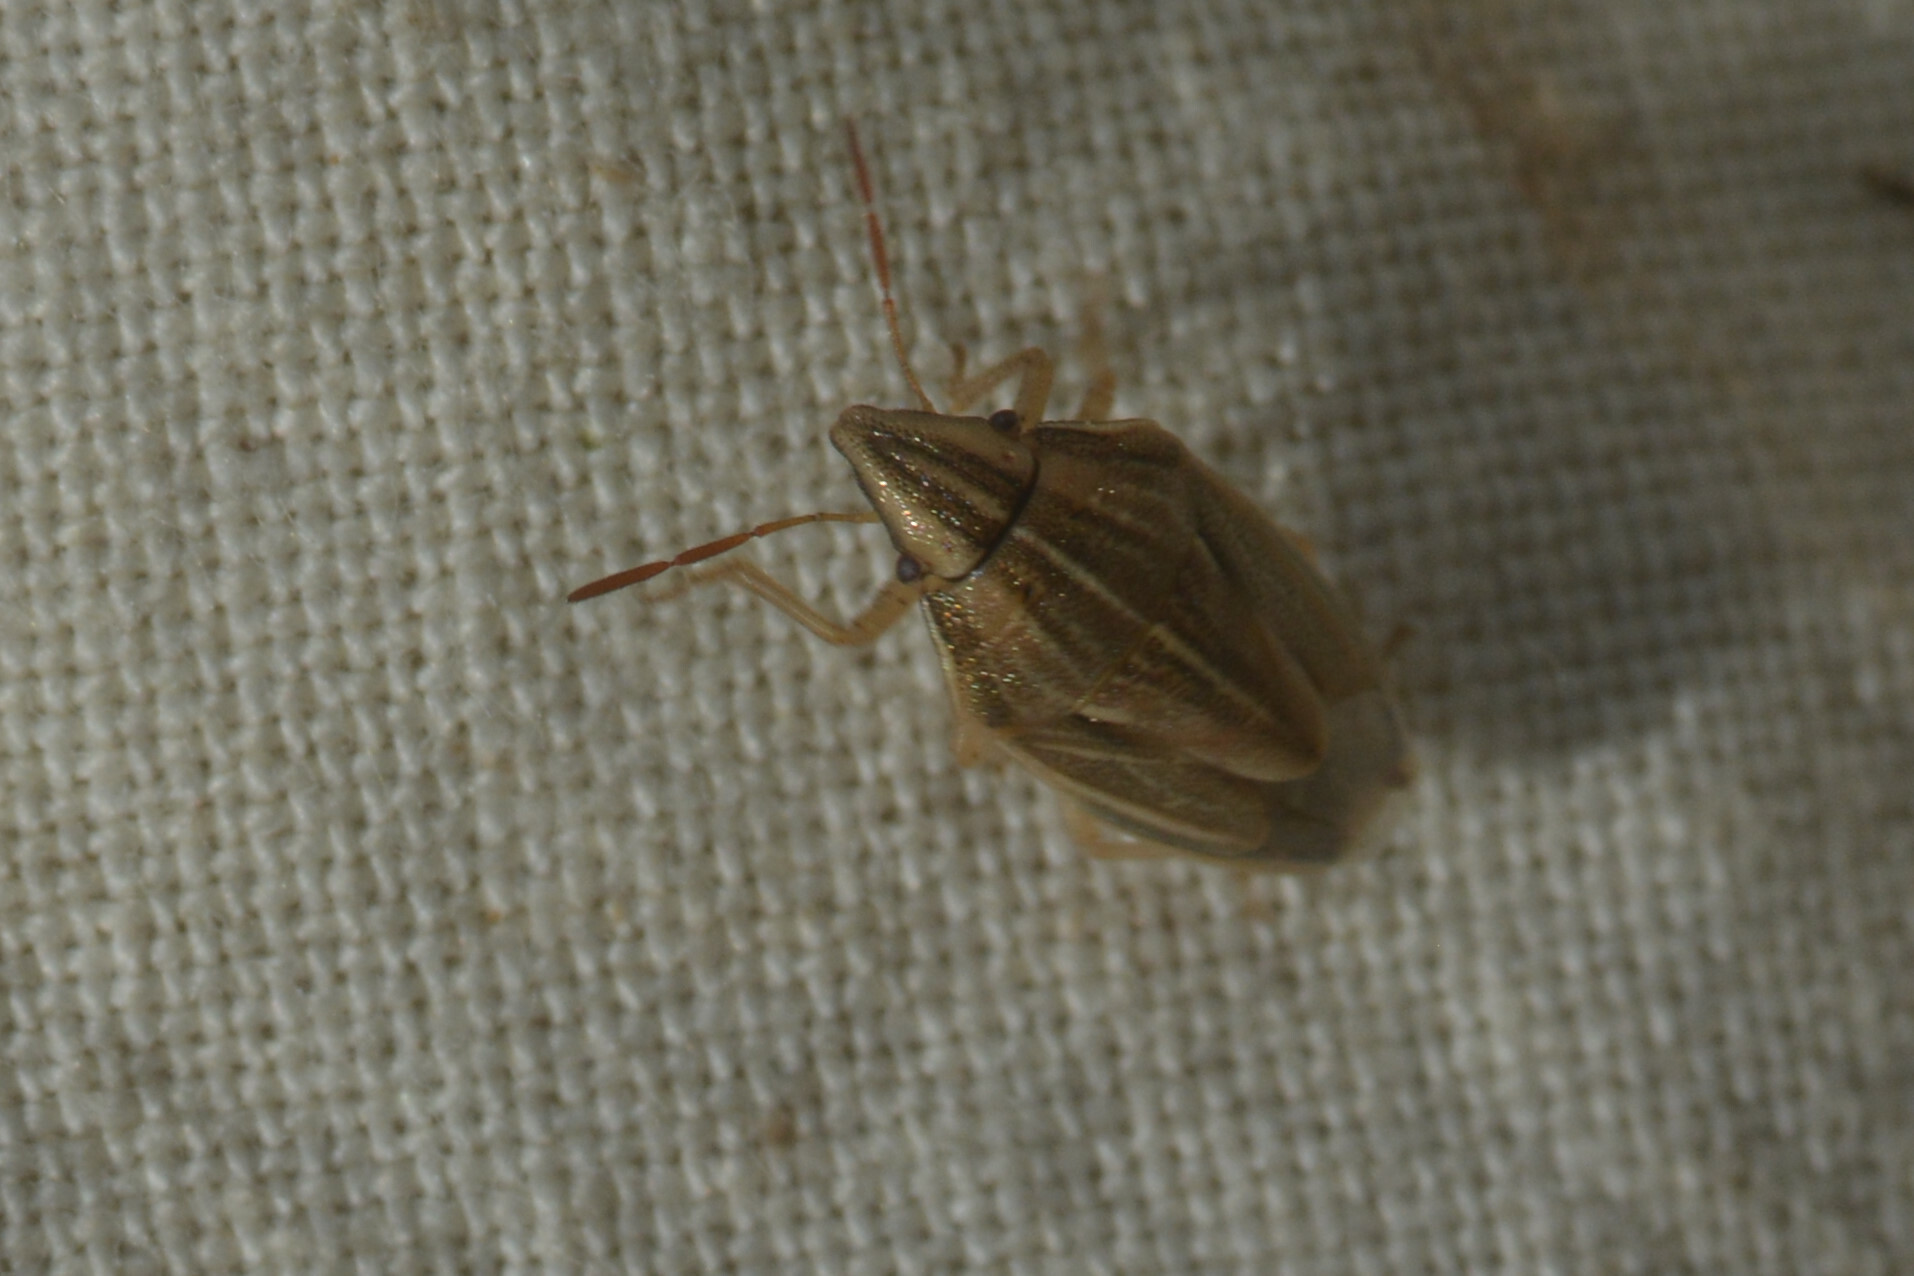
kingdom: Animalia
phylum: Arthropoda
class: Insecta
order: Hemiptera
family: Pentatomidae
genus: Aelia
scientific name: Aelia acuminata
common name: Bishop's mitre
